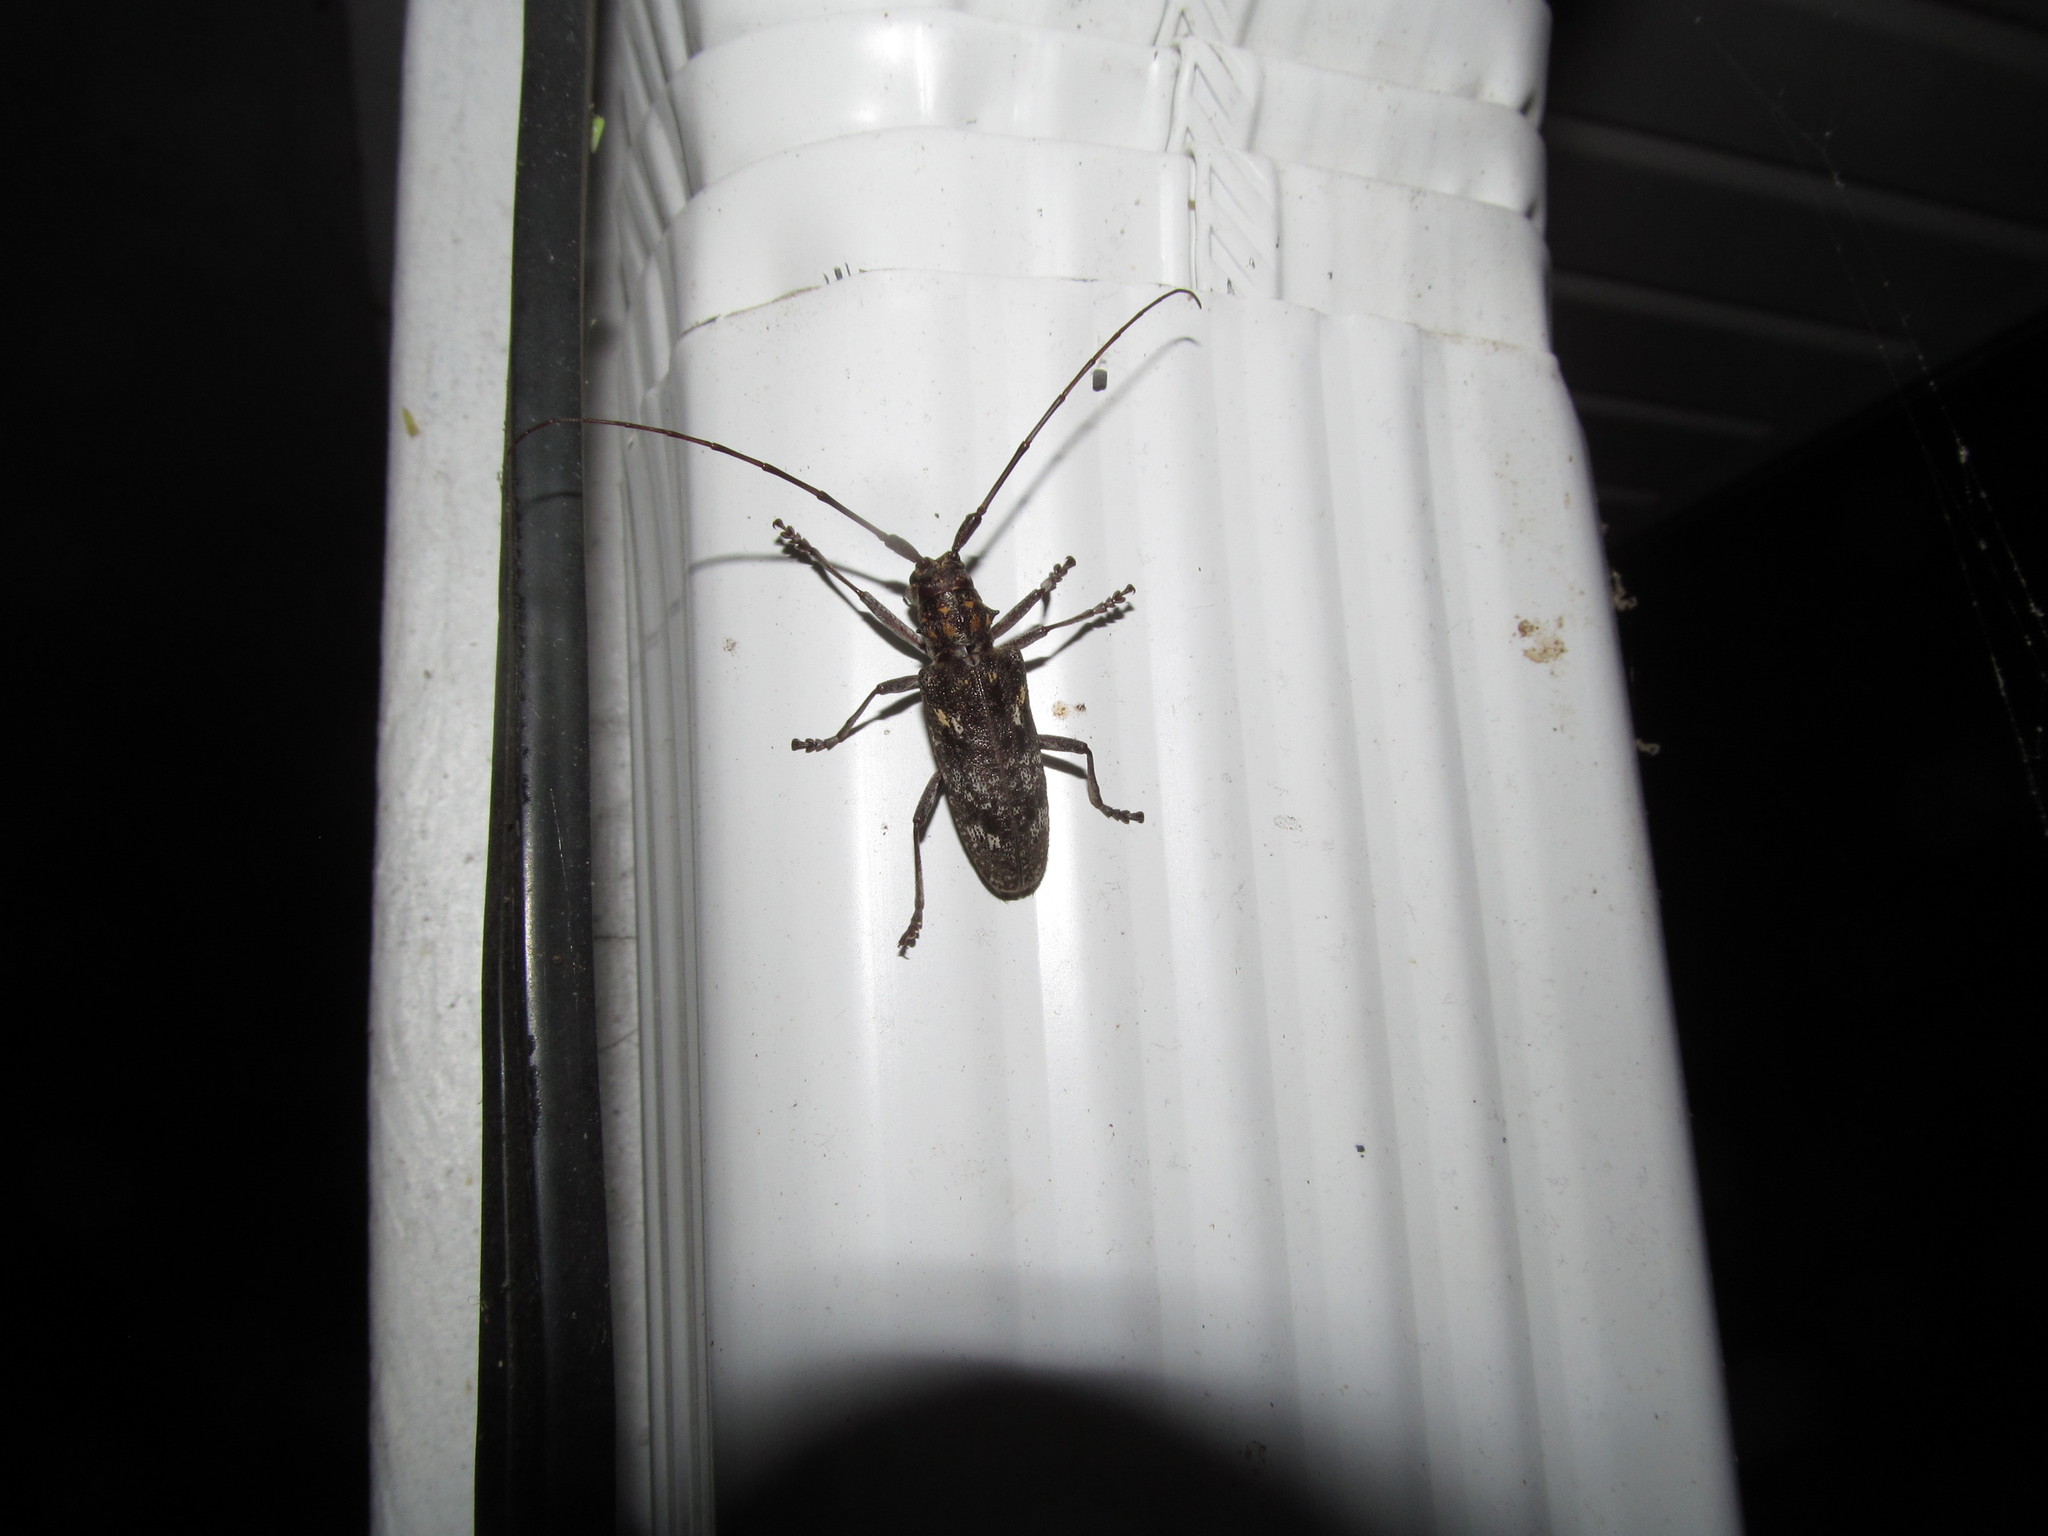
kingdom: Animalia
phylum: Arthropoda
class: Insecta
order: Coleoptera
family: Cerambycidae
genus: Monochamus
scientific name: Monochamus carolinensis
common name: Carolina pine sawyer
